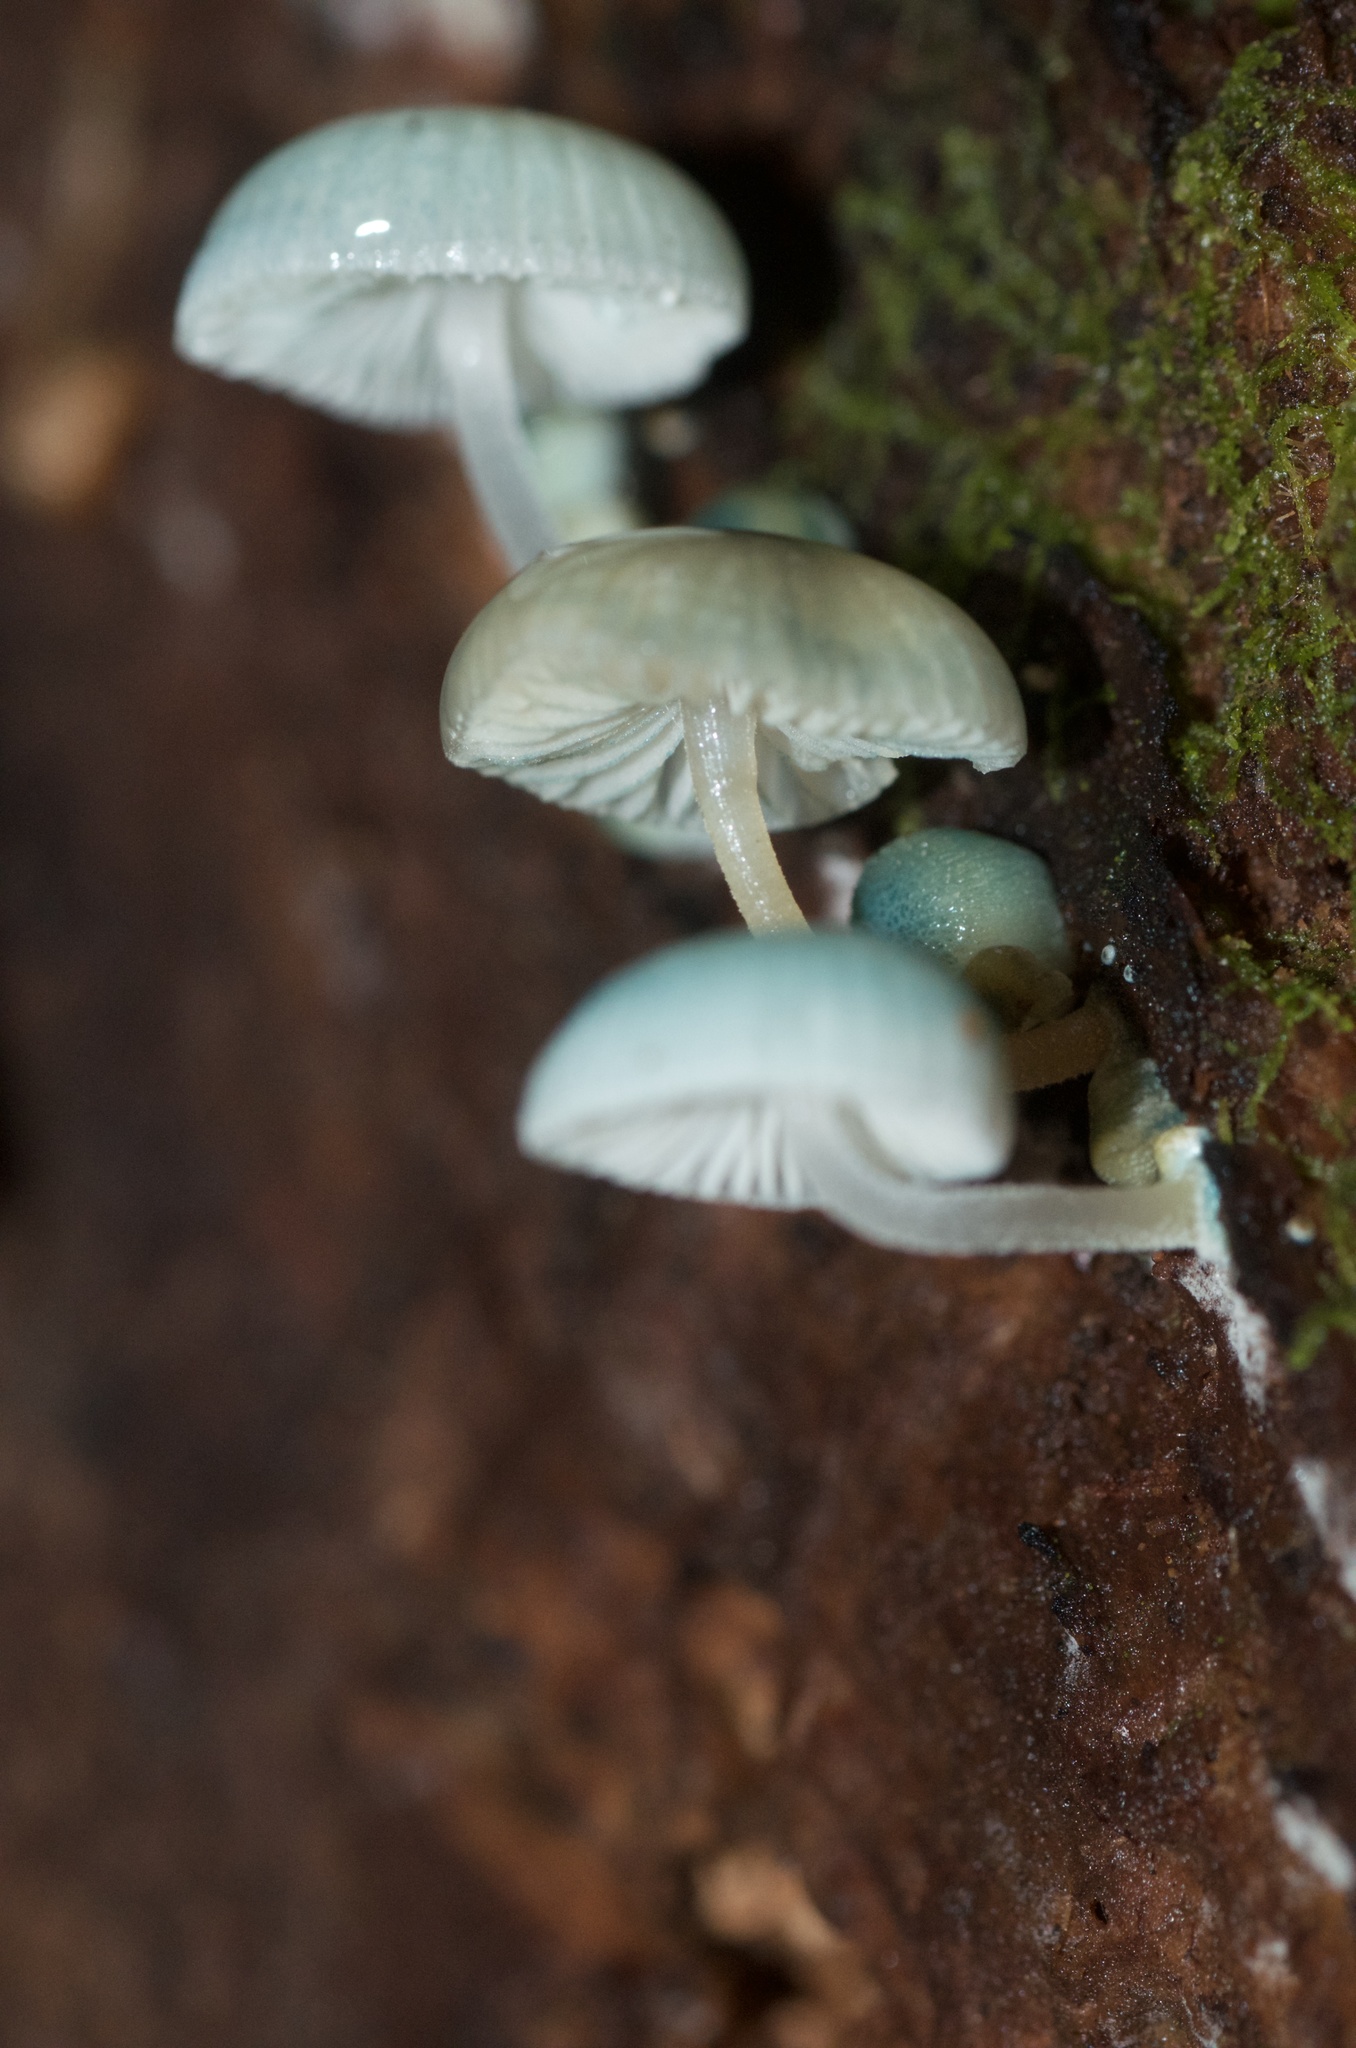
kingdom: Fungi
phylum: Basidiomycota
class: Agaricomycetes
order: Agaricales
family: Mycenaceae
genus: Mycena
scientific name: Mycena interrupta
